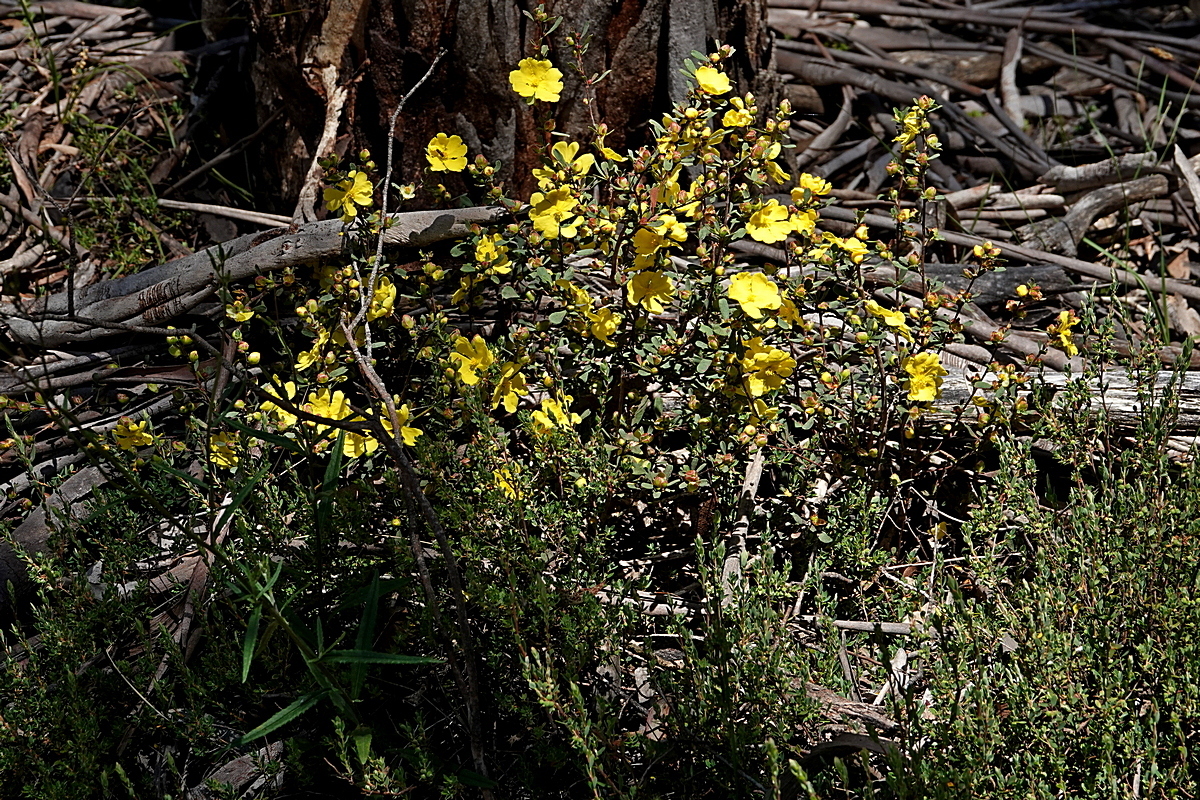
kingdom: Plantae
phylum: Tracheophyta
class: Magnoliopsida
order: Dilleniales
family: Dilleniaceae
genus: Hibbertia
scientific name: Hibbertia obtusifolia
